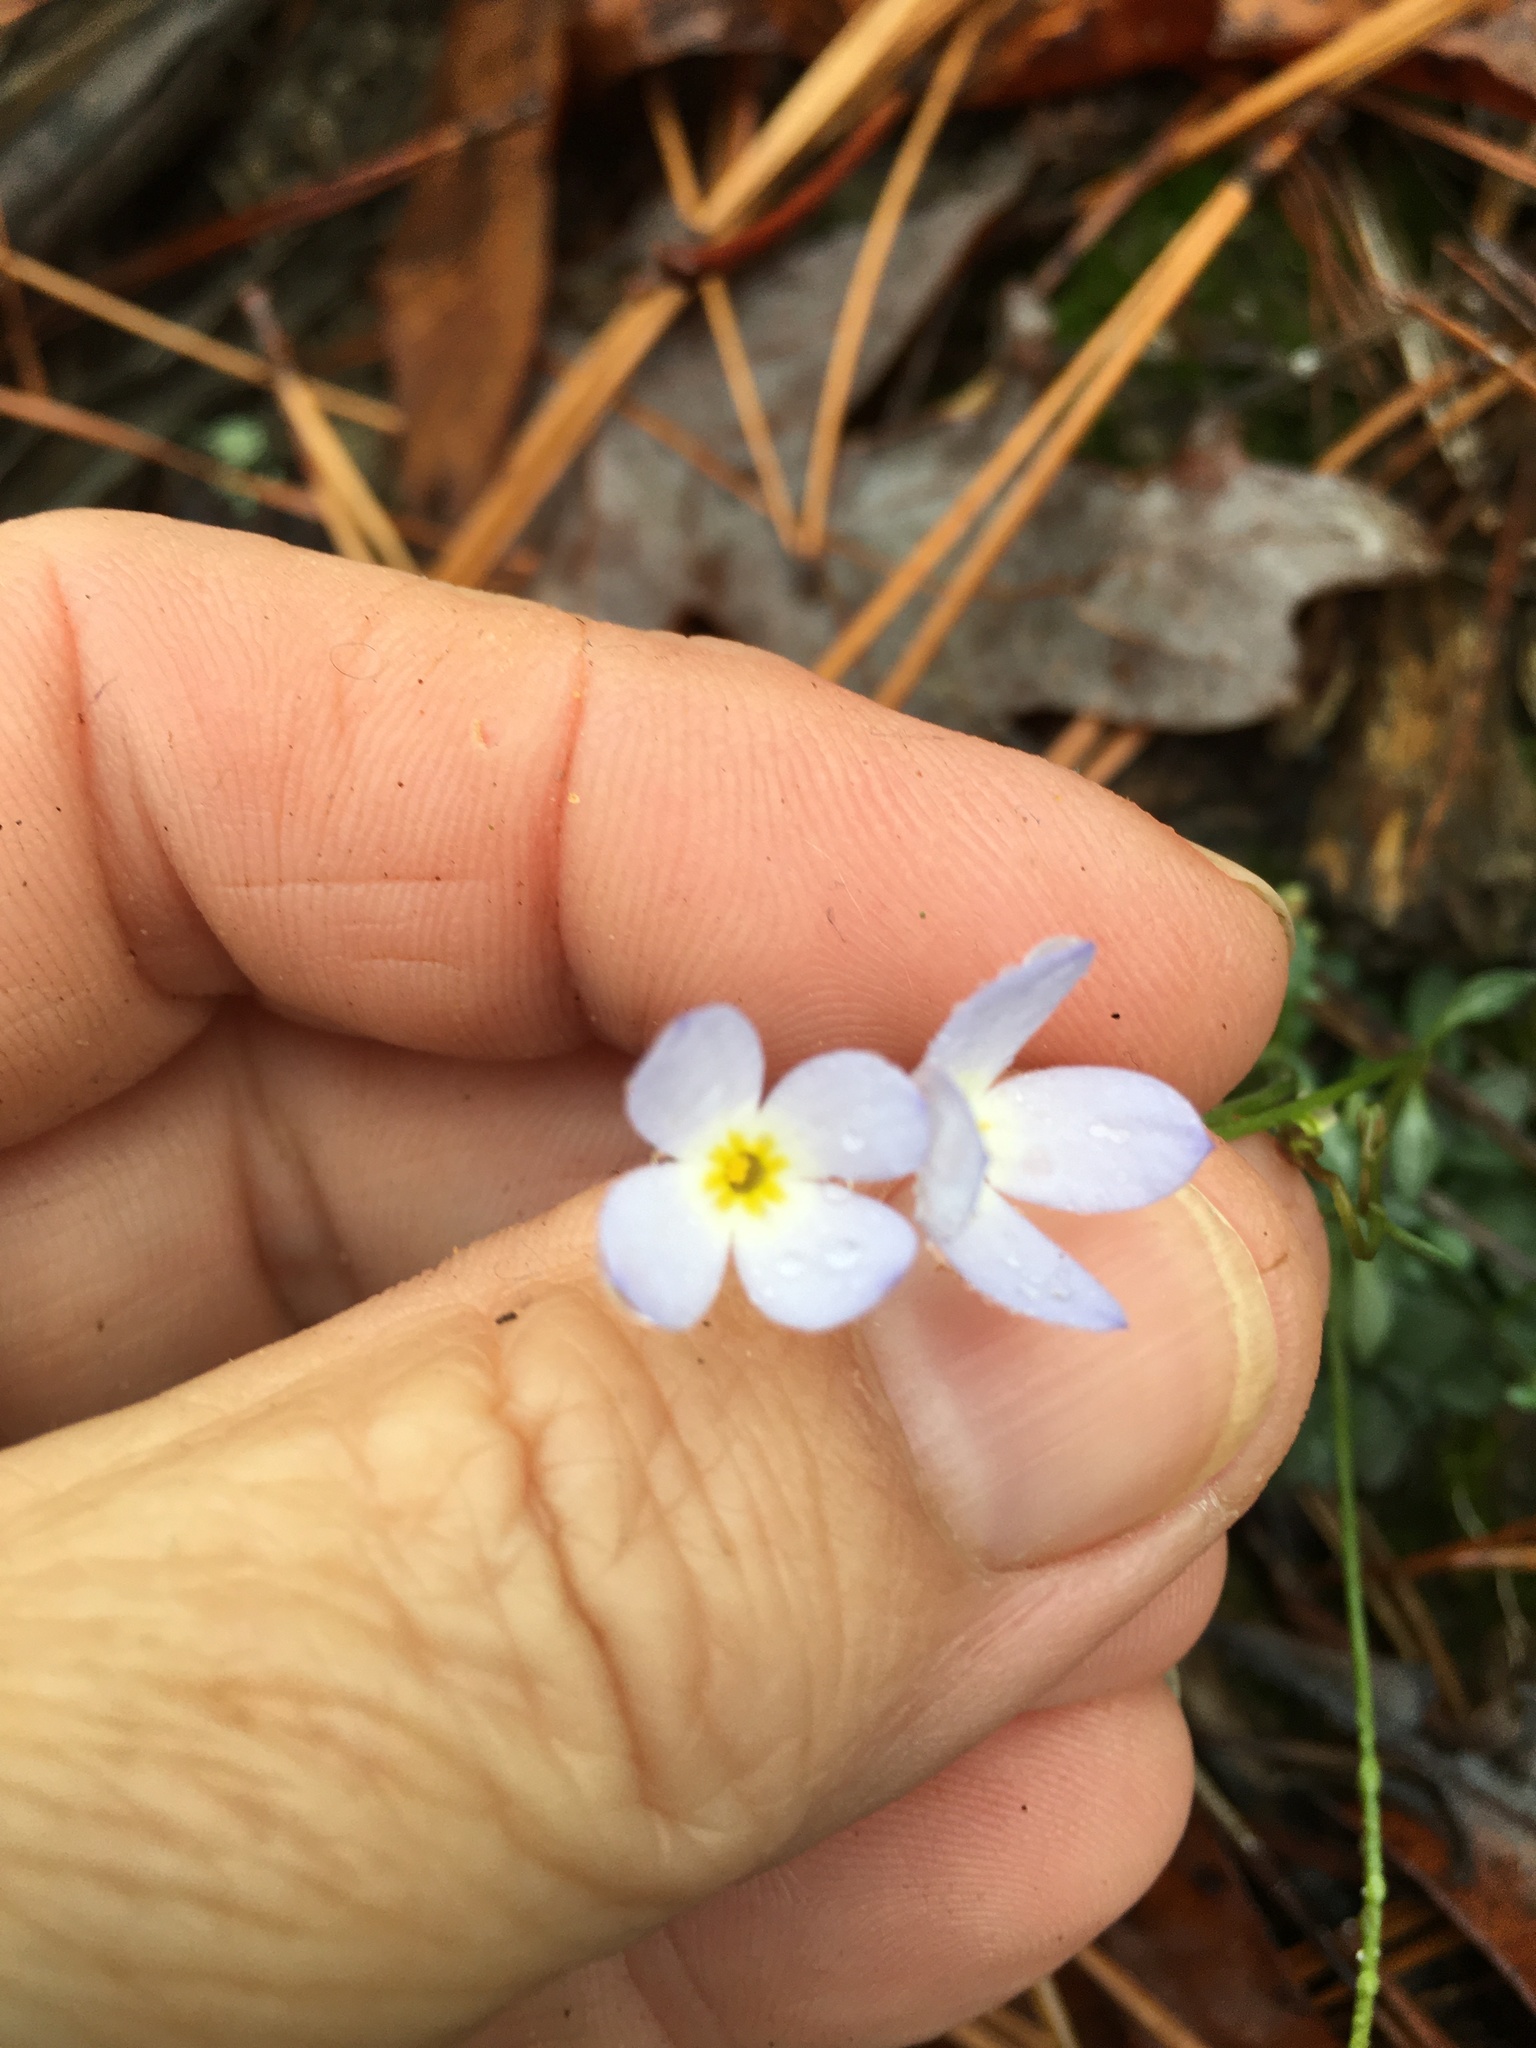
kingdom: Plantae
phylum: Tracheophyta
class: Magnoliopsida
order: Gentianales
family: Rubiaceae
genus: Houstonia
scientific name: Houstonia caerulea
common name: Bluets
